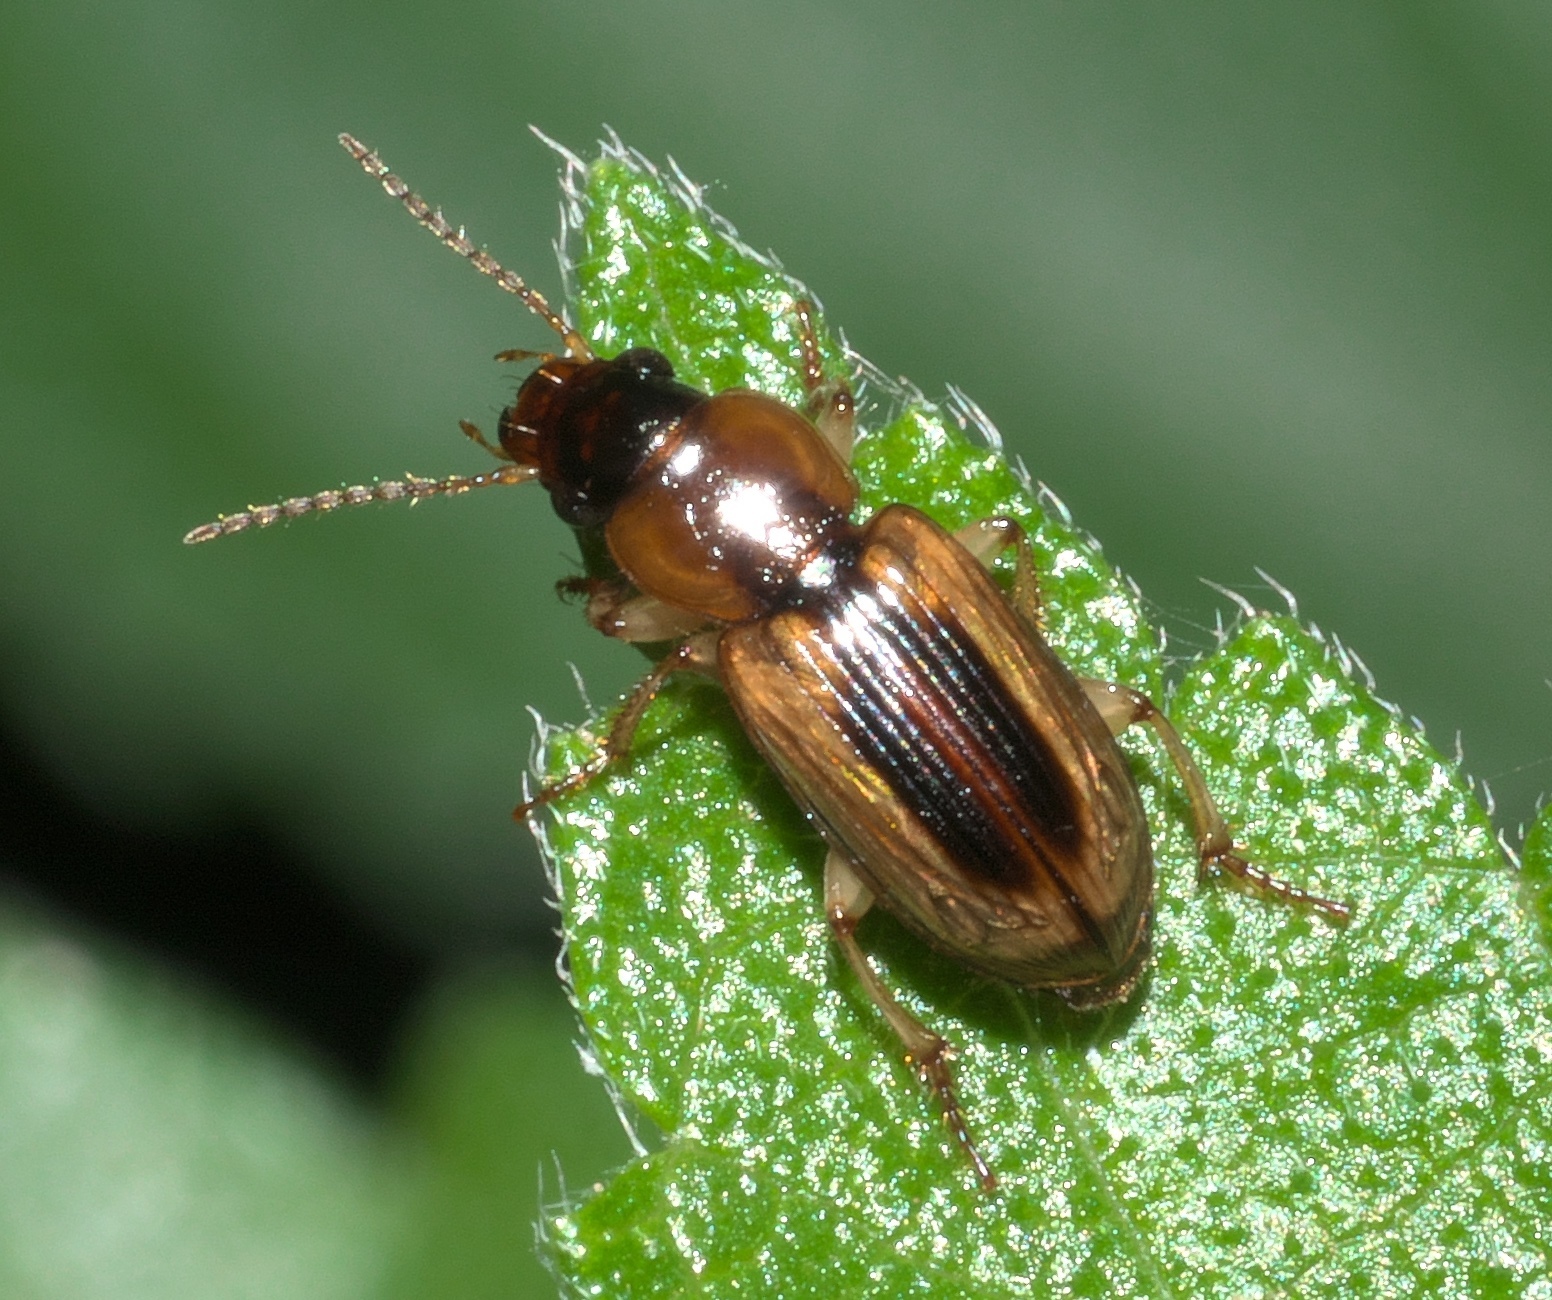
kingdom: Animalia
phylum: Arthropoda
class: Insecta
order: Coleoptera
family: Carabidae
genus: Stenolophus
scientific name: Stenolophus lecontei
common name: Leconte's seedcorn beetle
